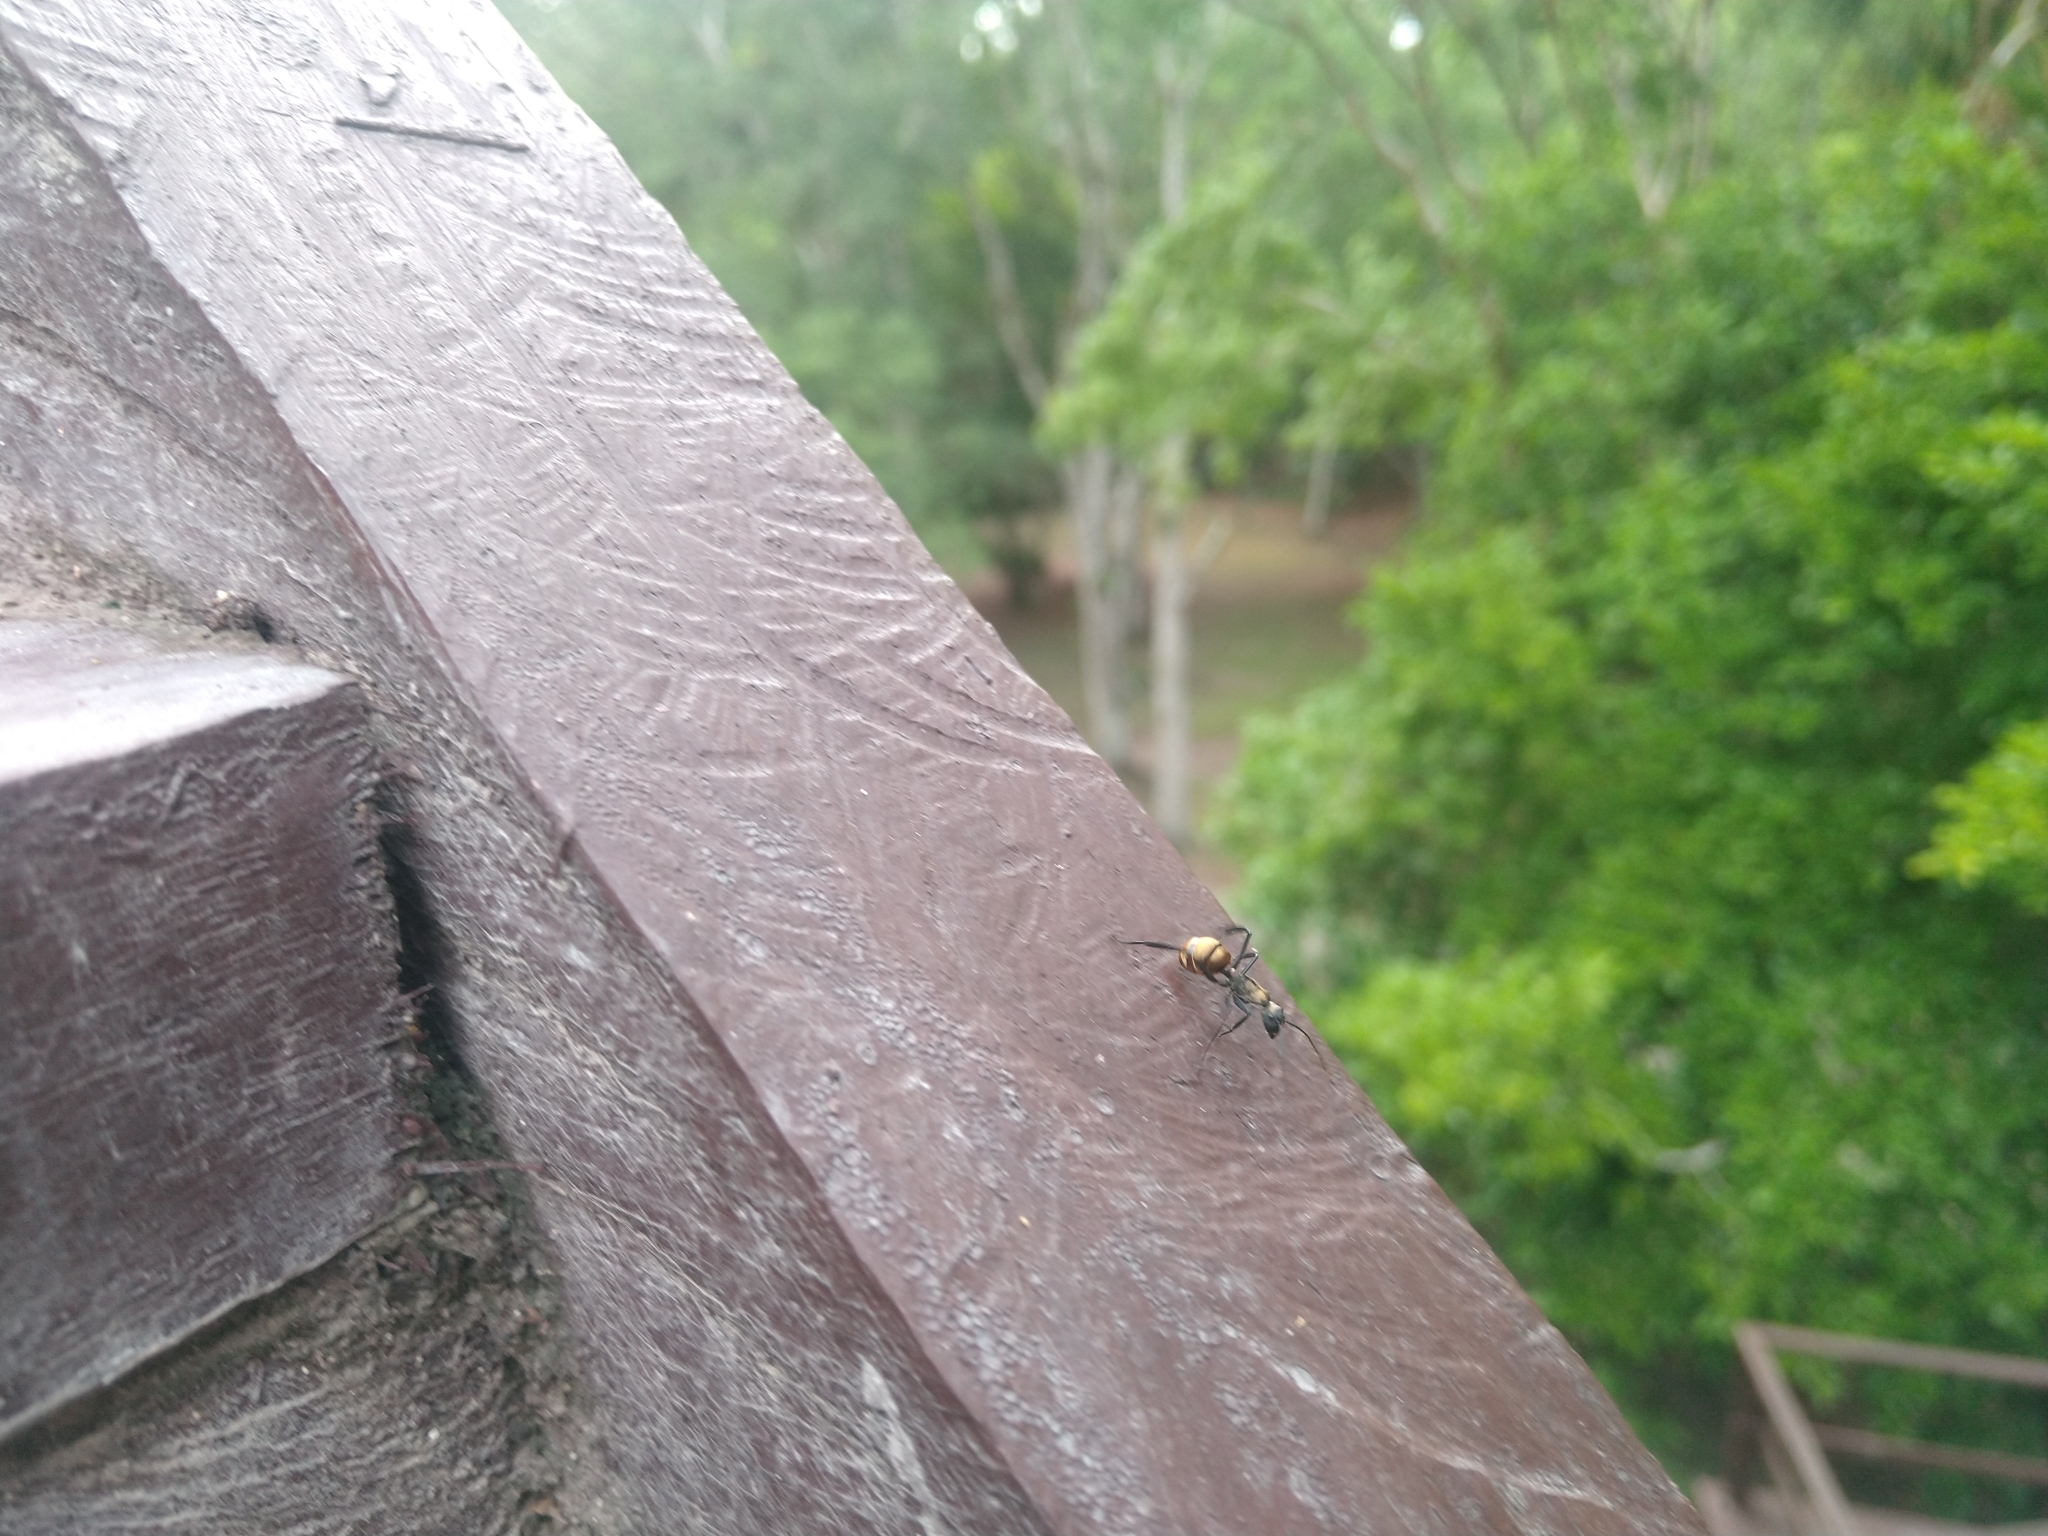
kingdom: Animalia
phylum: Arthropoda
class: Insecta
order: Hymenoptera
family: Formicidae
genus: Camponotus
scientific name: Camponotus sericeiventris
